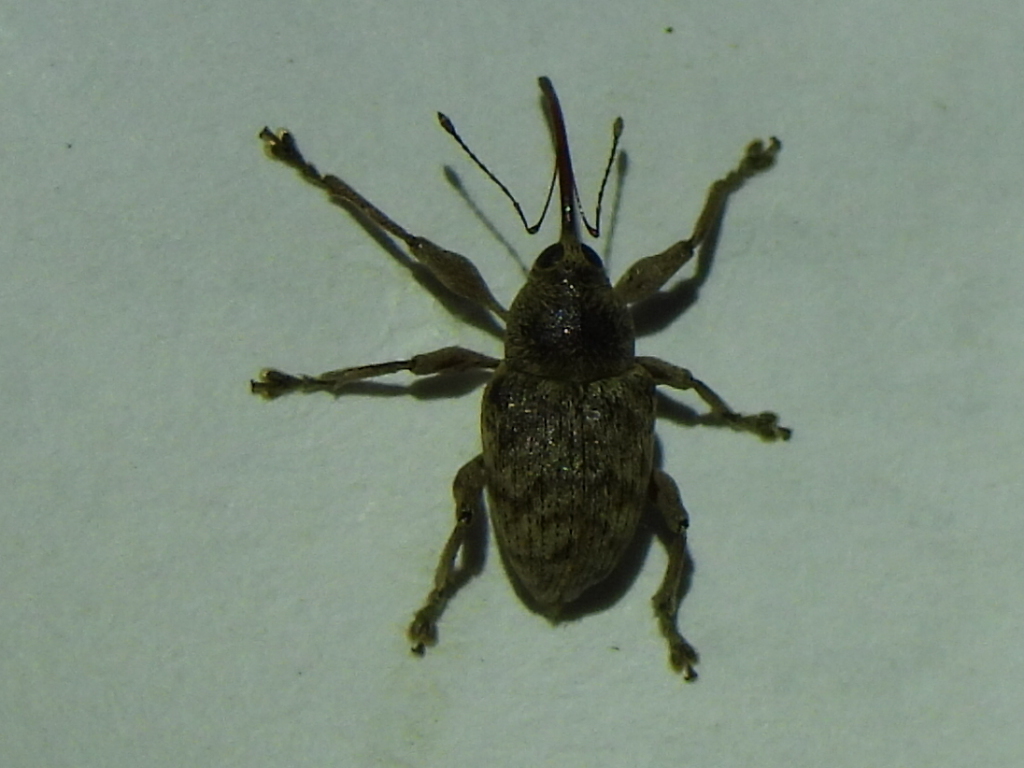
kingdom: Animalia
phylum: Arthropoda
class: Insecta
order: Coleoptera
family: Curculionidae
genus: Curculio
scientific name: Curculio
